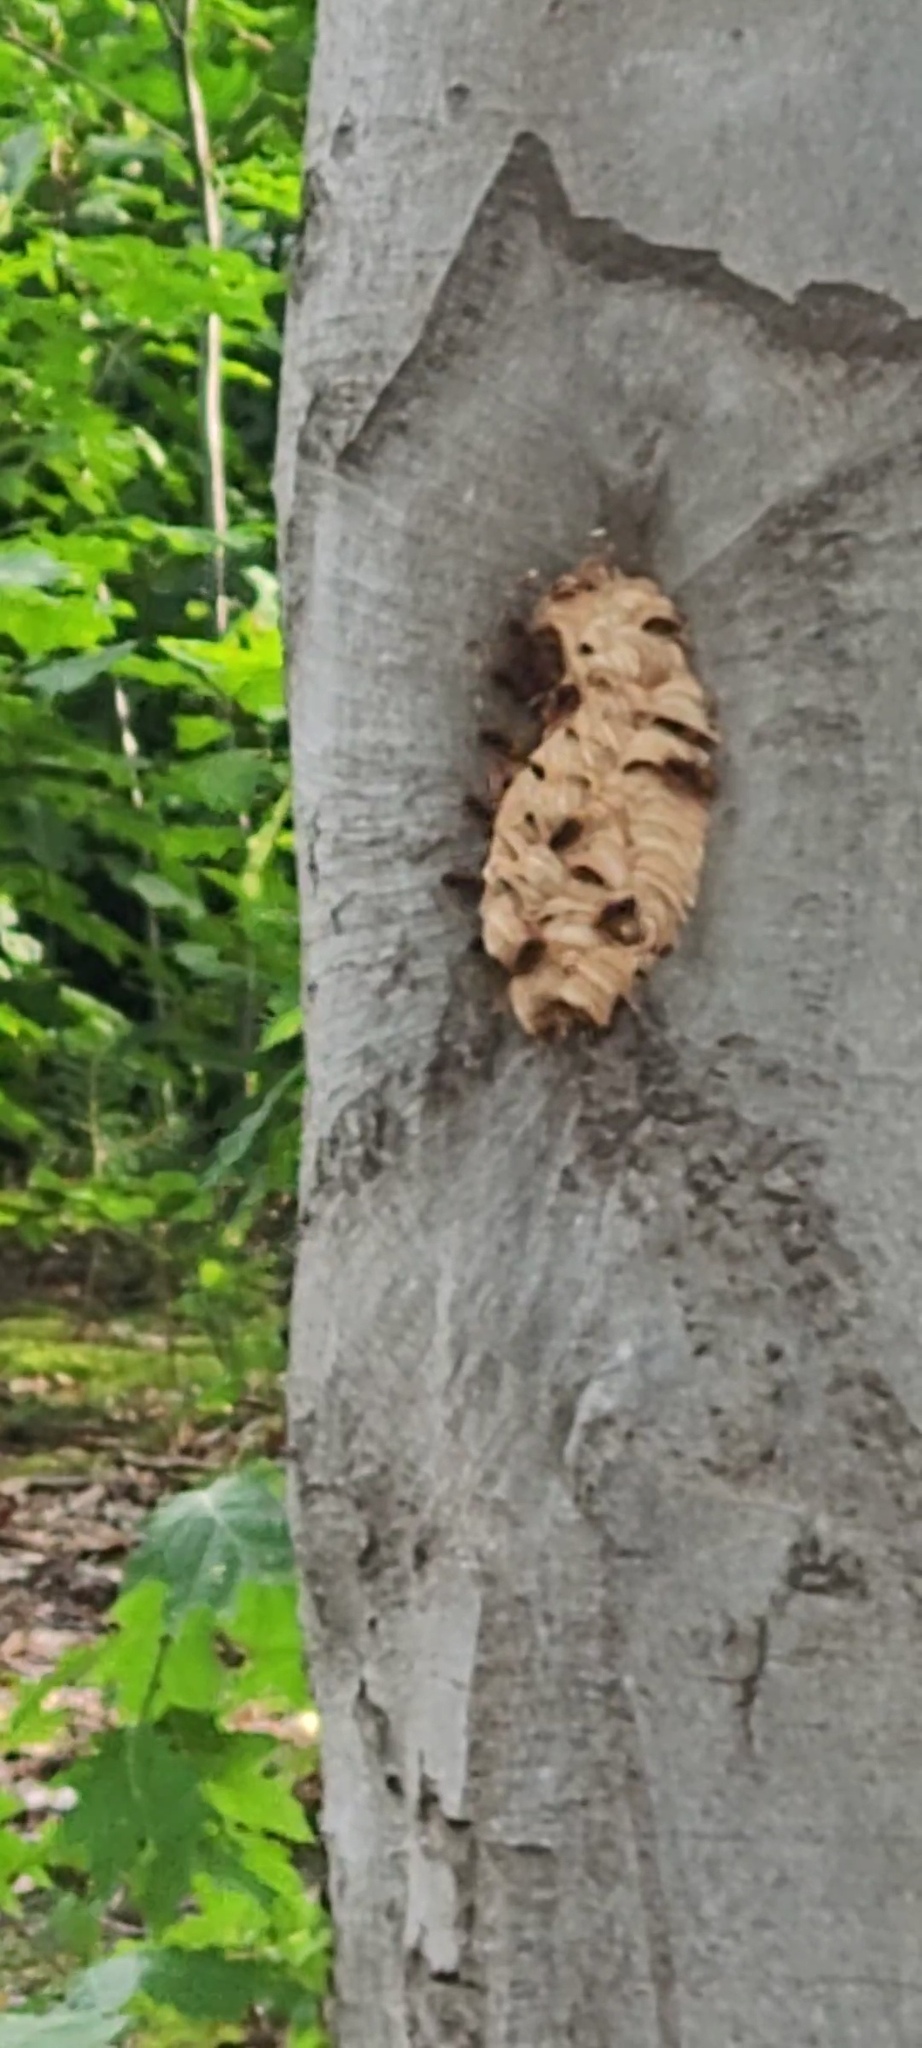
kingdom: Animalia
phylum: Arthropoda
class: Insecta
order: Hymenoptera
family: Vespidae
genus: Vespa
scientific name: Vespa crabro
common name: Hornet
